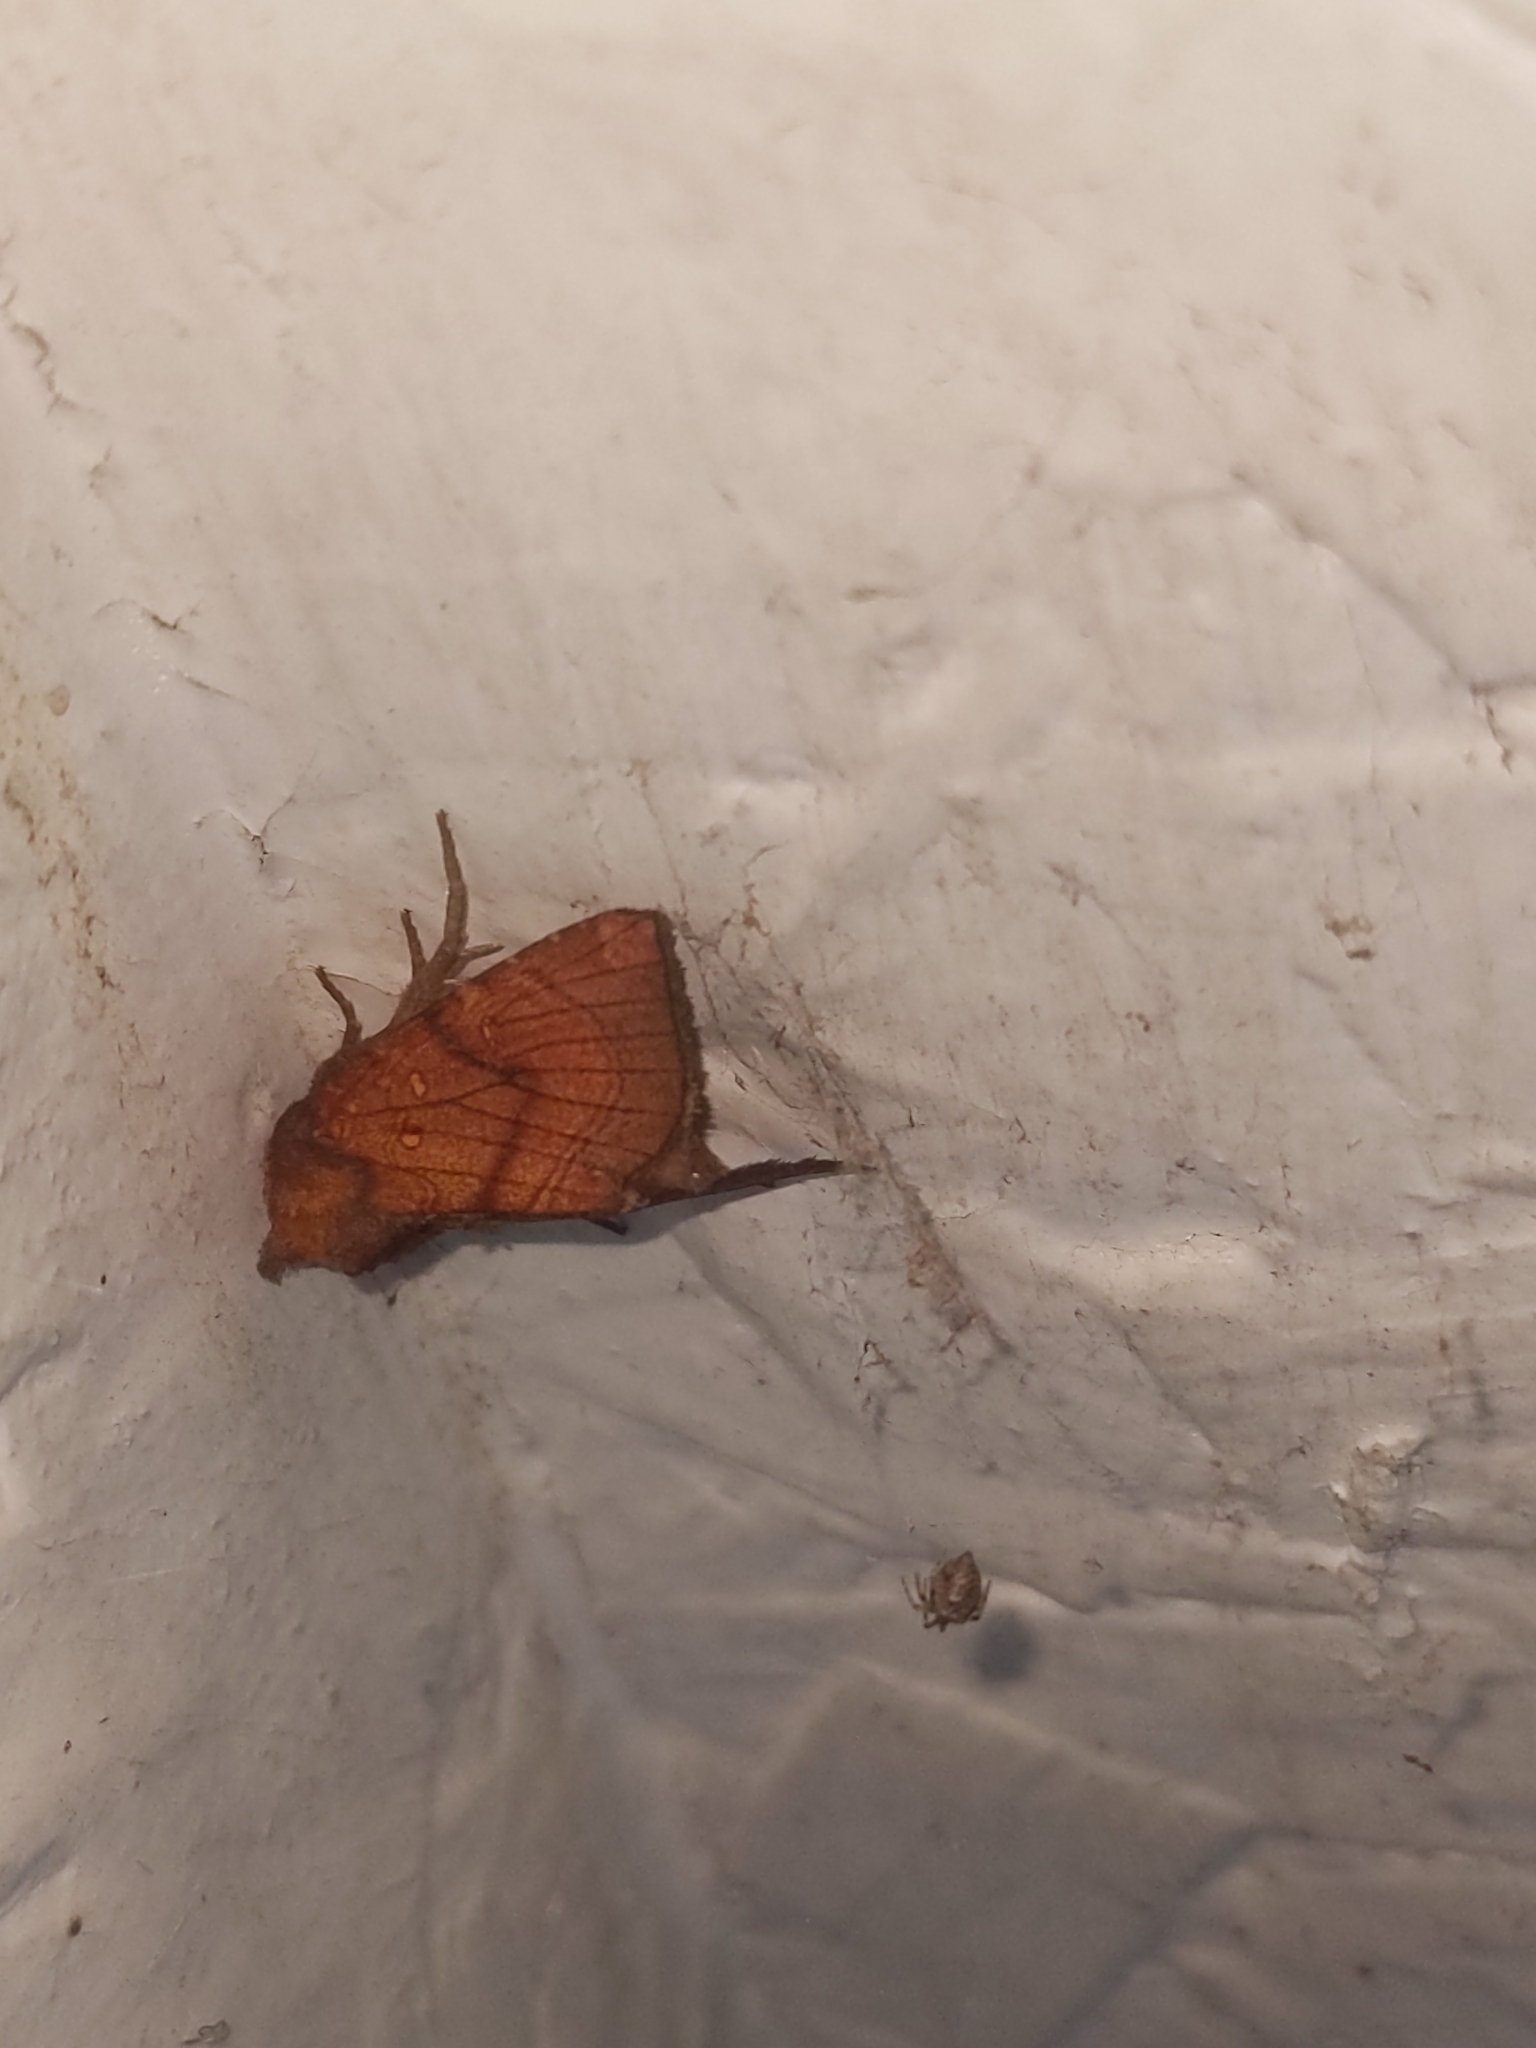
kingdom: Animalia
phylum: Arthropoda
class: Insecta
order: Lepidoptera
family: Noctuidae
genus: Papaipema
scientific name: Papaipema inquaesita
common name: Sensitive fern borer moth
